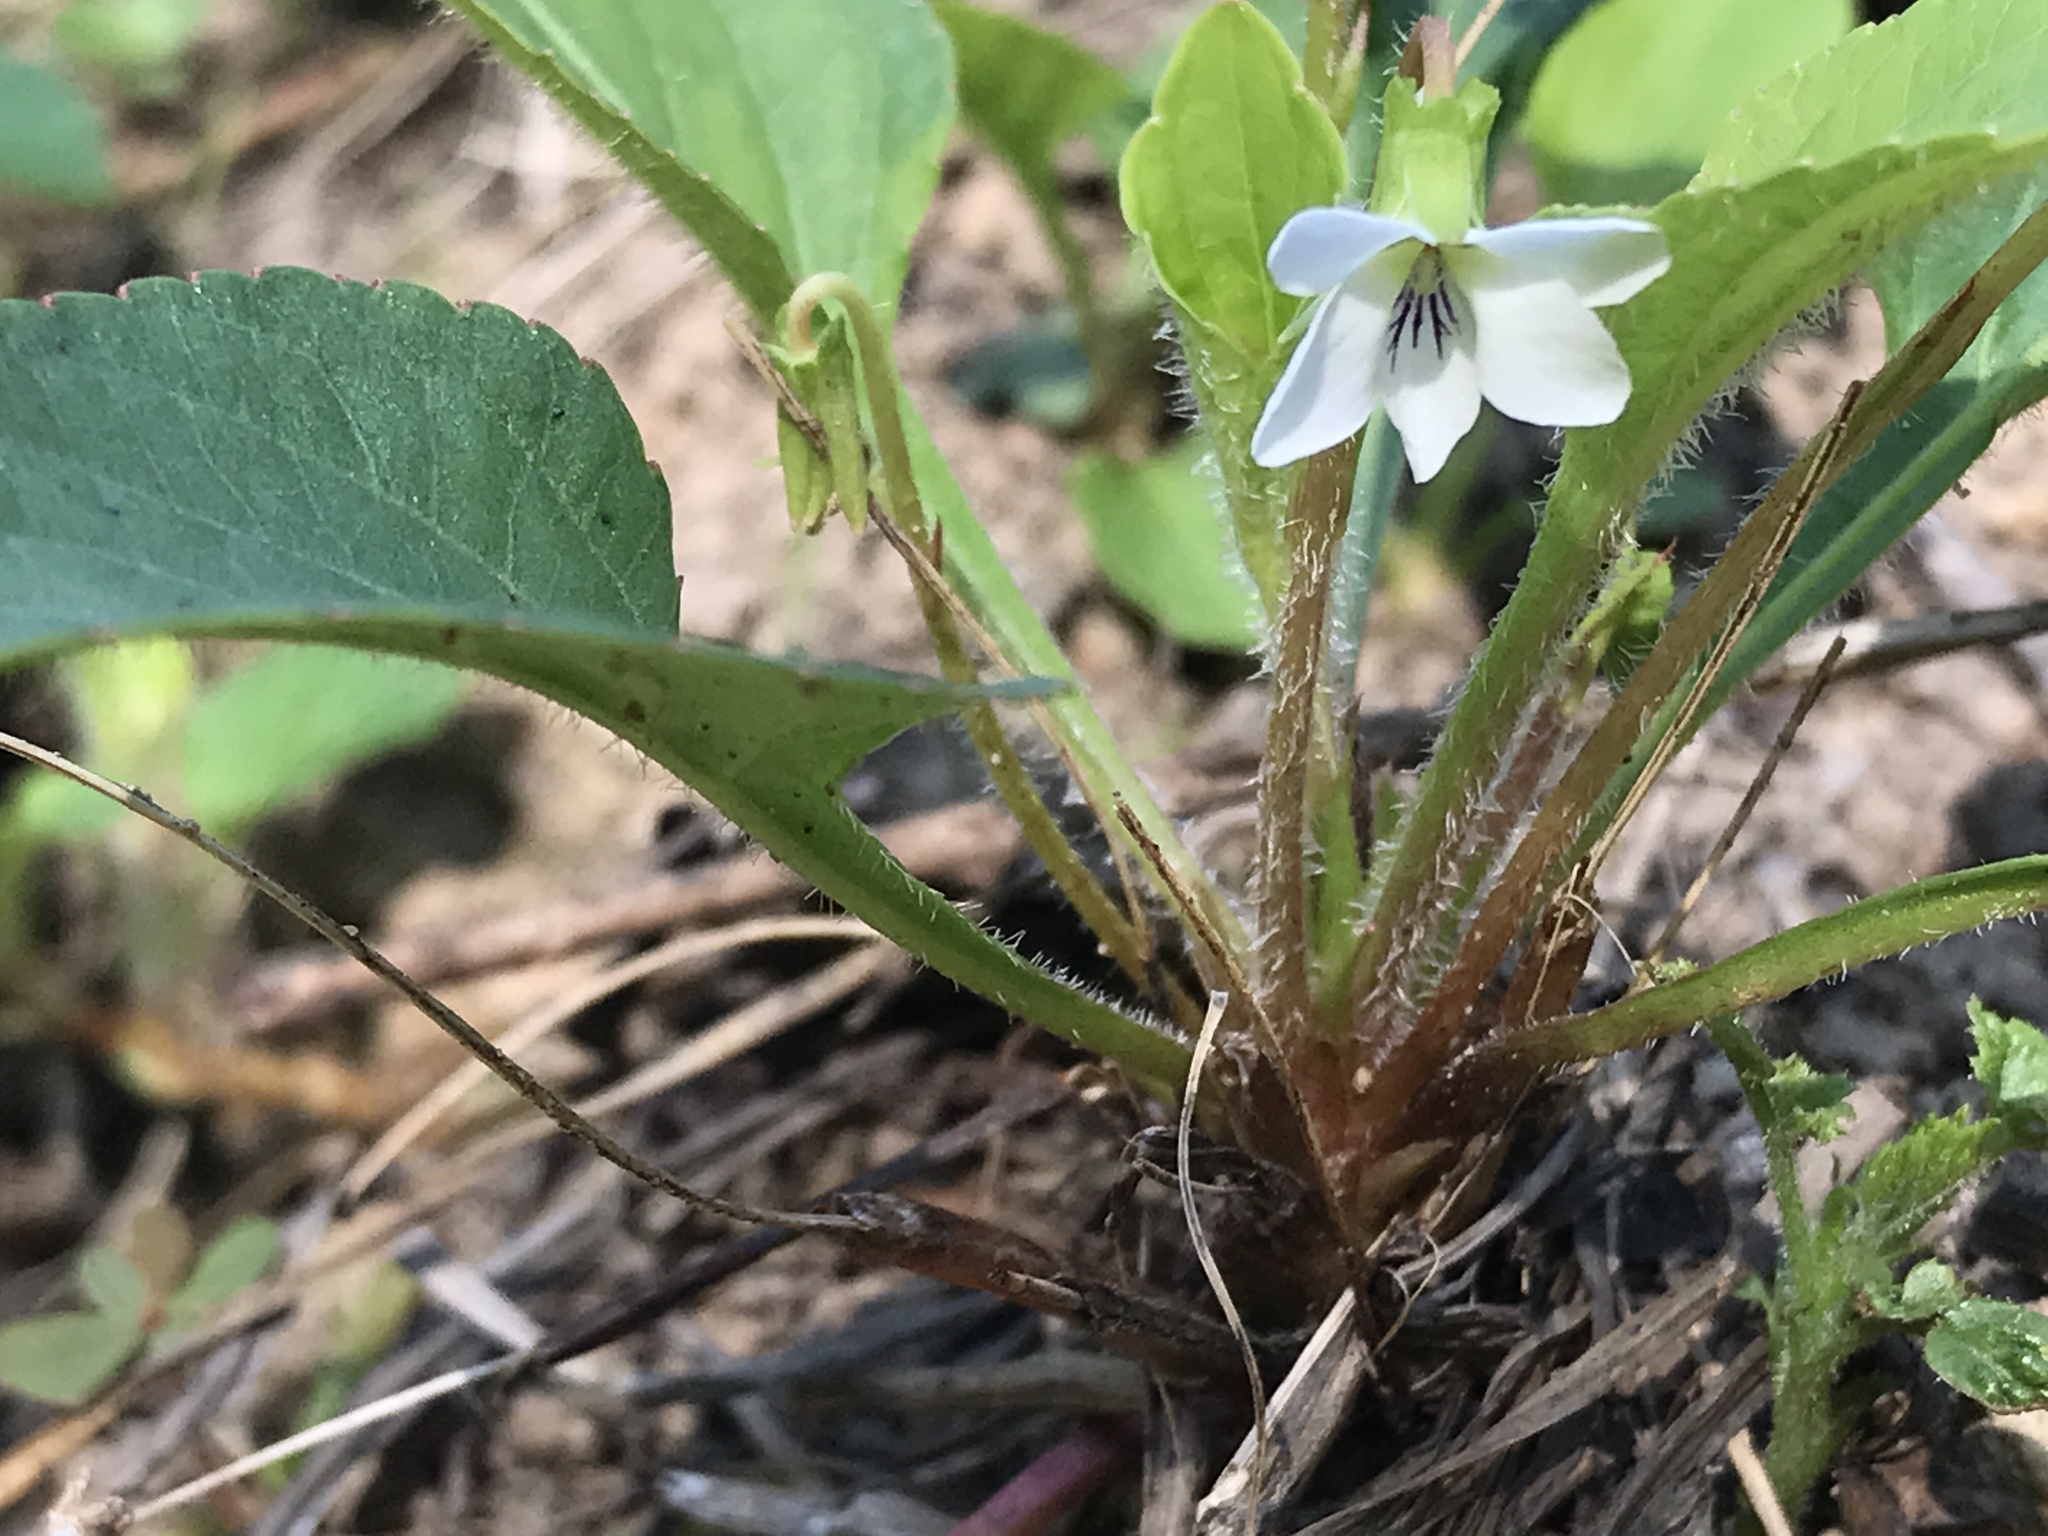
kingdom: Plantae
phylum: Tracheophyta
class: Magnoliopsida
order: Malpighiales
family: Violaceae
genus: Viola
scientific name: Viola primulifolia
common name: Primrose-leaf violet
